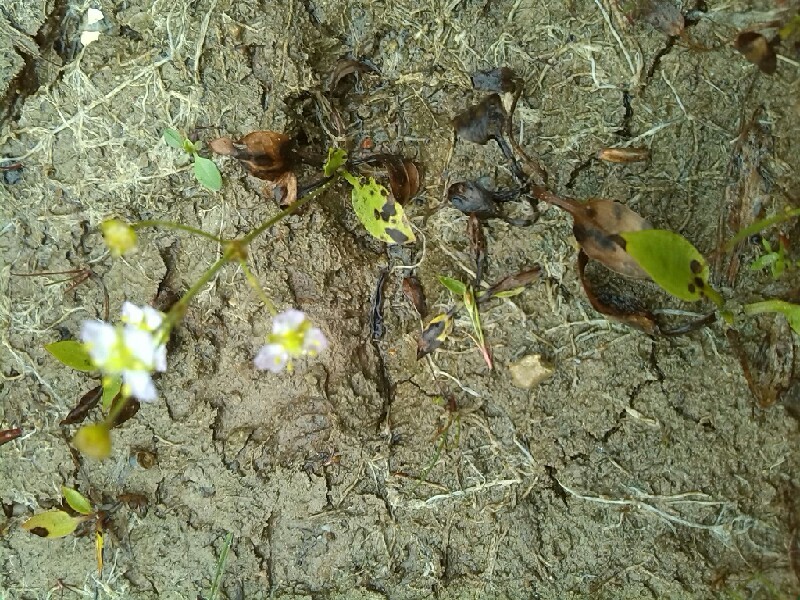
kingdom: Plantae
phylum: Tracheophyta
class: Liliopsida
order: Alismatales
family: Alismataceae
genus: Alisma
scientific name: Alisma plantago-aquatica
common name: Water-plantain
